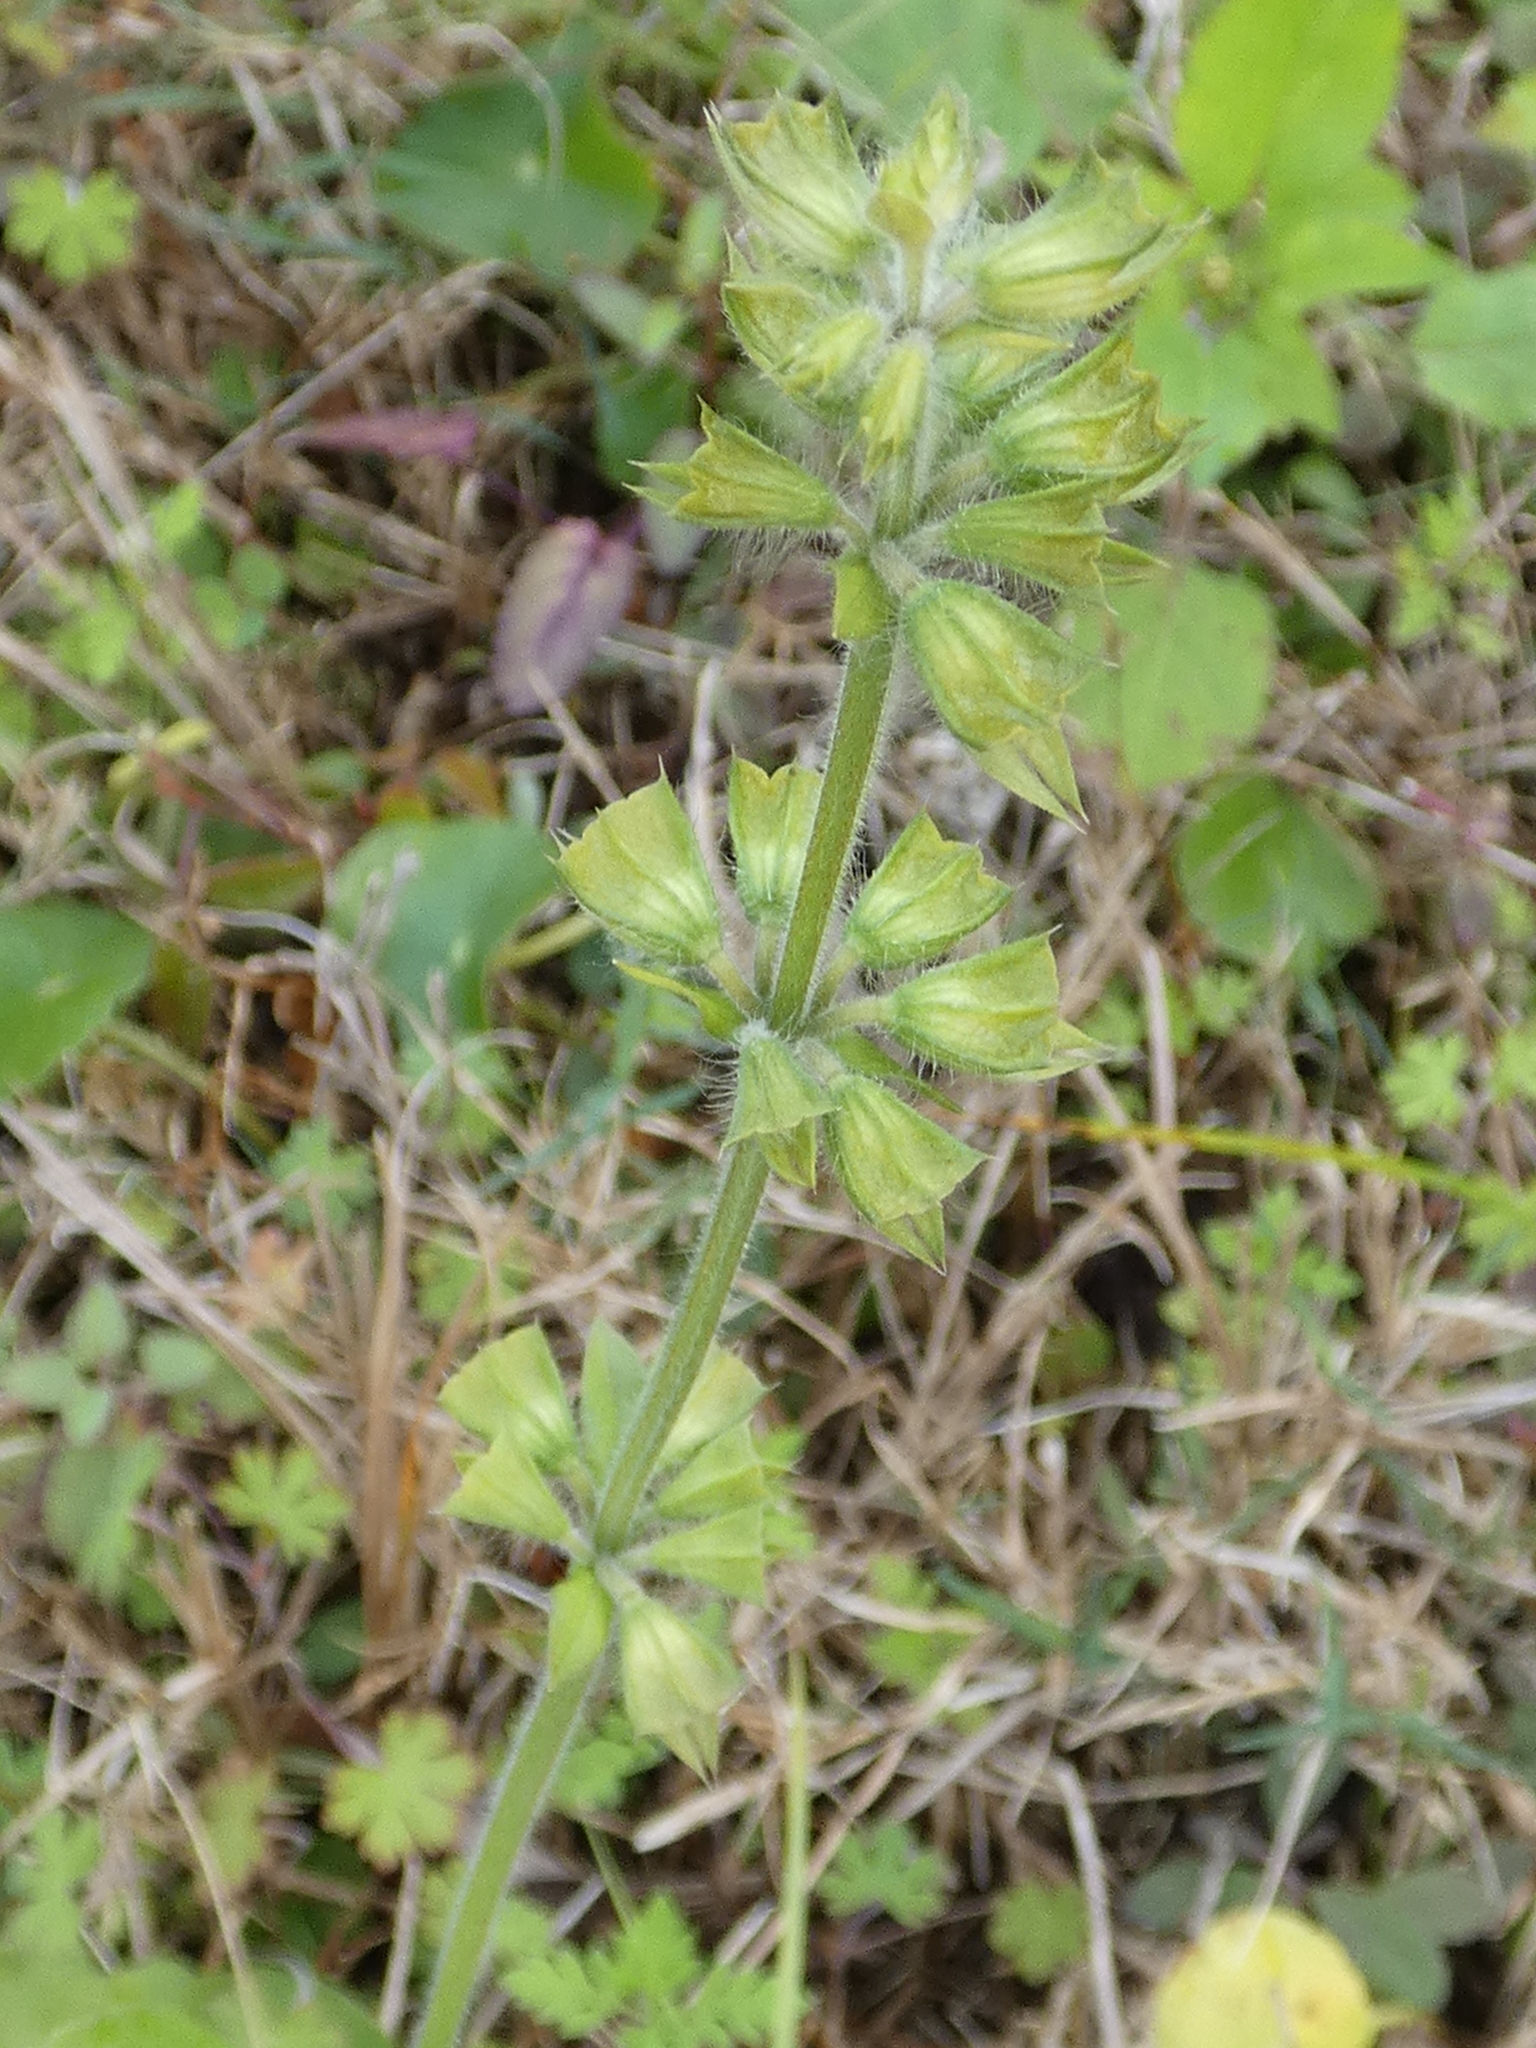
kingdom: Plantae
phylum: Tracheophyta
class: Magnoliopsida
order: Lamiales
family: Lamiaceae
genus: Salvia
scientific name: Salvia lyrata
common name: Cancerweed
